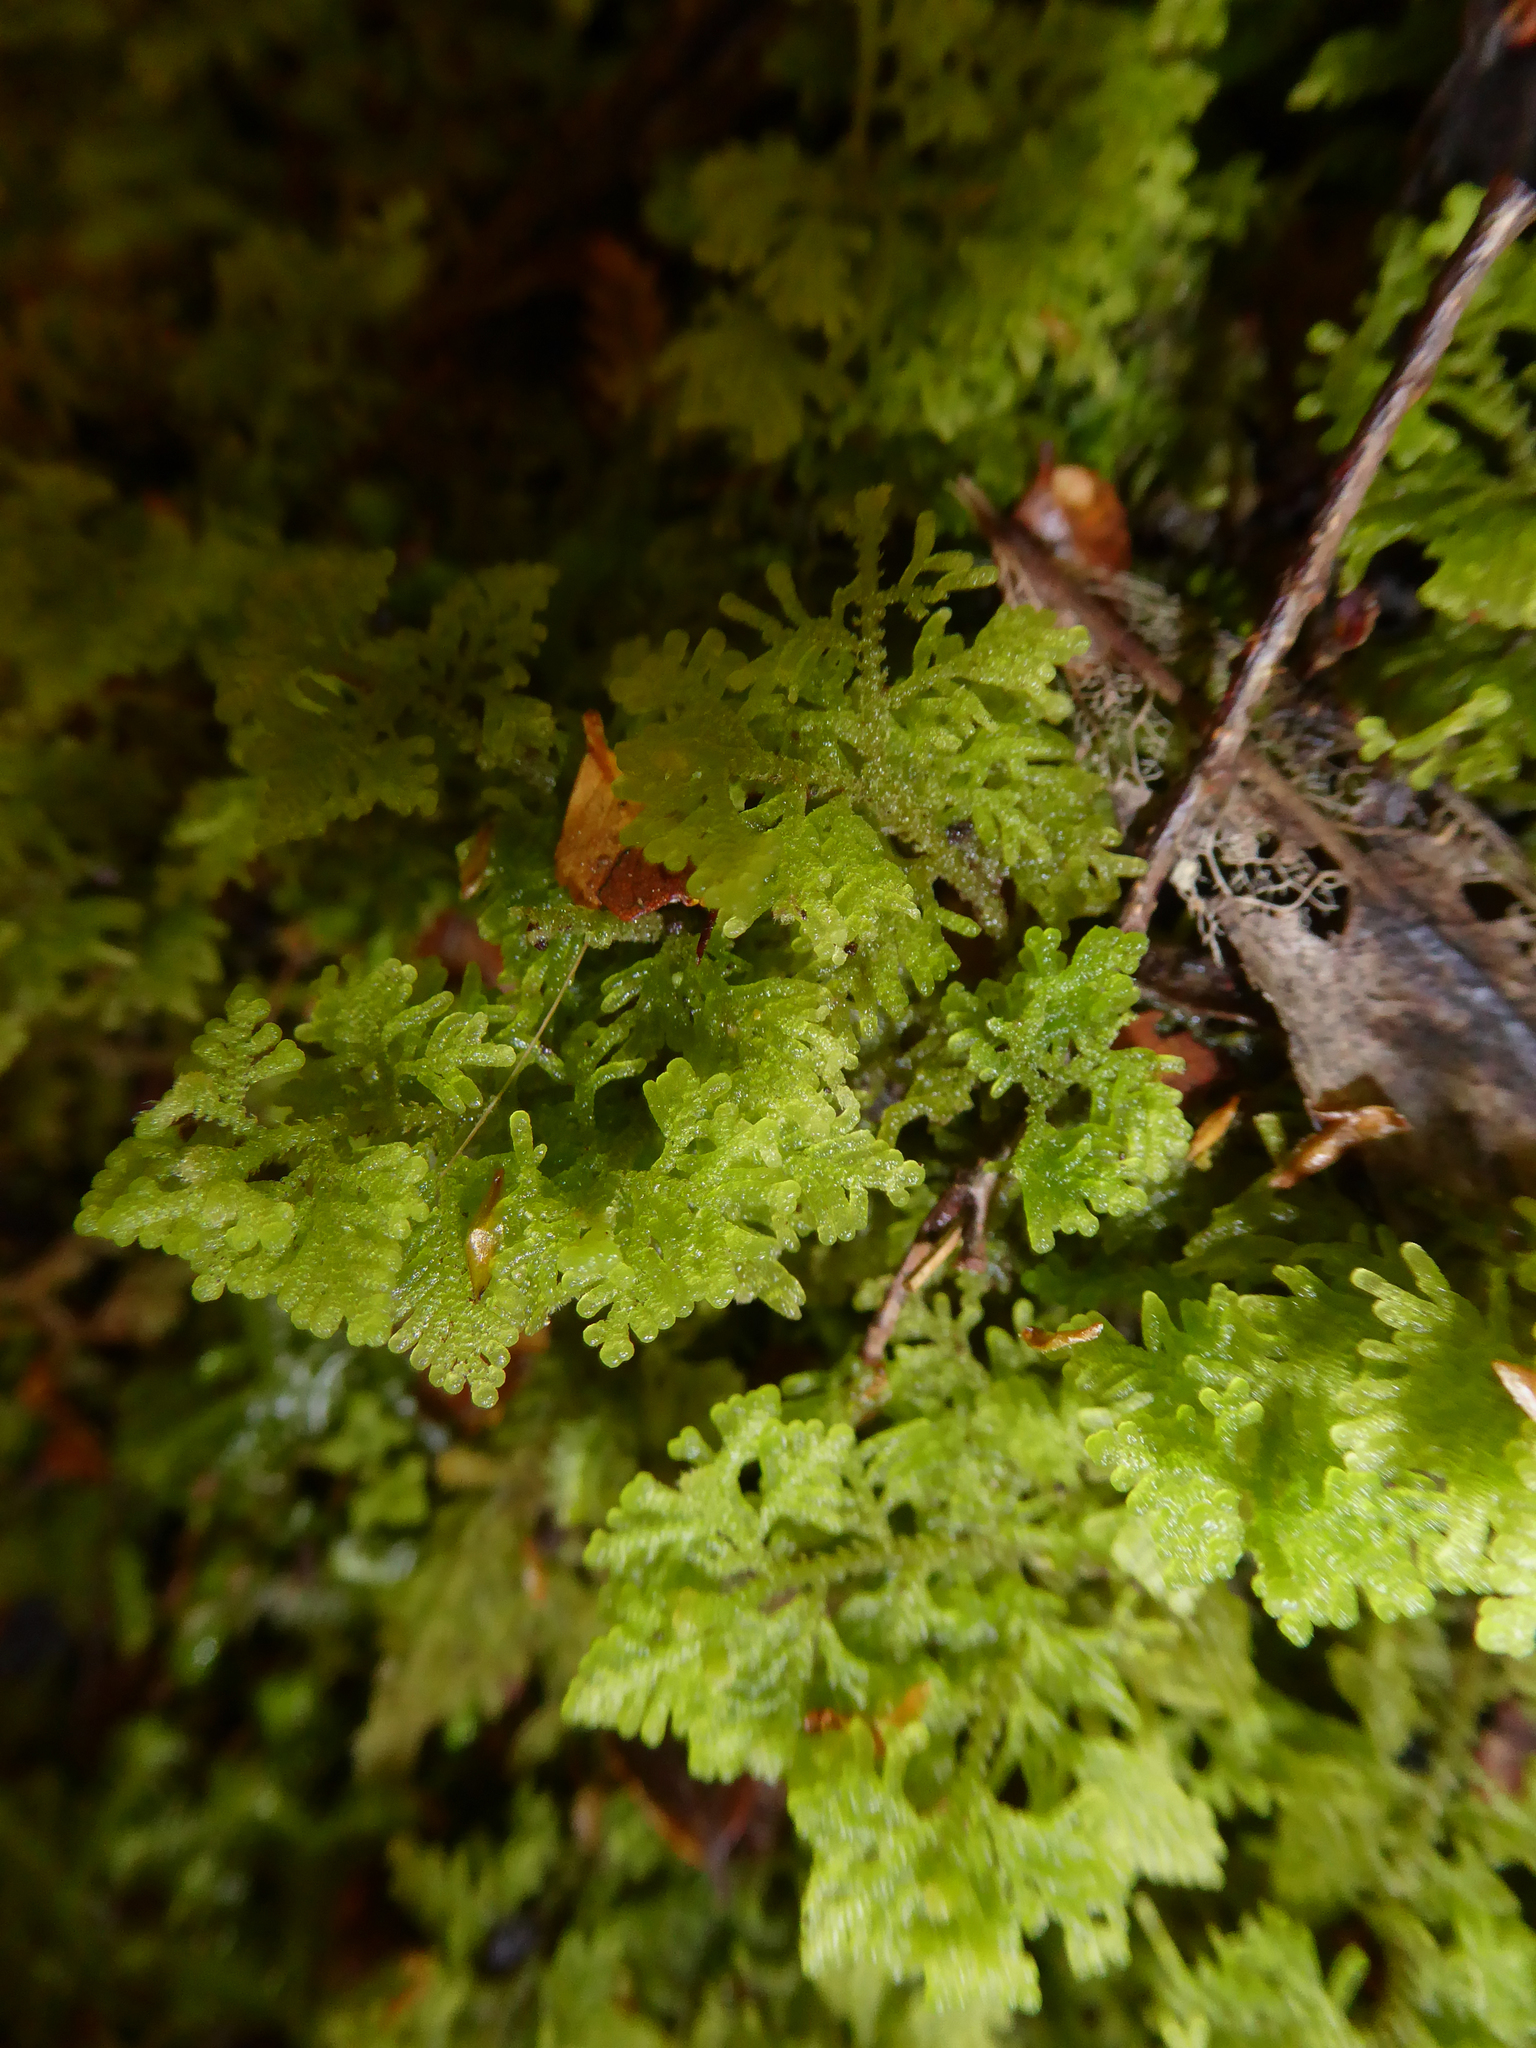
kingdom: Plantae
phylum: Marchantiophyta
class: Jungermanniopsida
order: Jungermanniales
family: Trichocoleaceae
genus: Trichocolea
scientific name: Trichocolea mollissima
